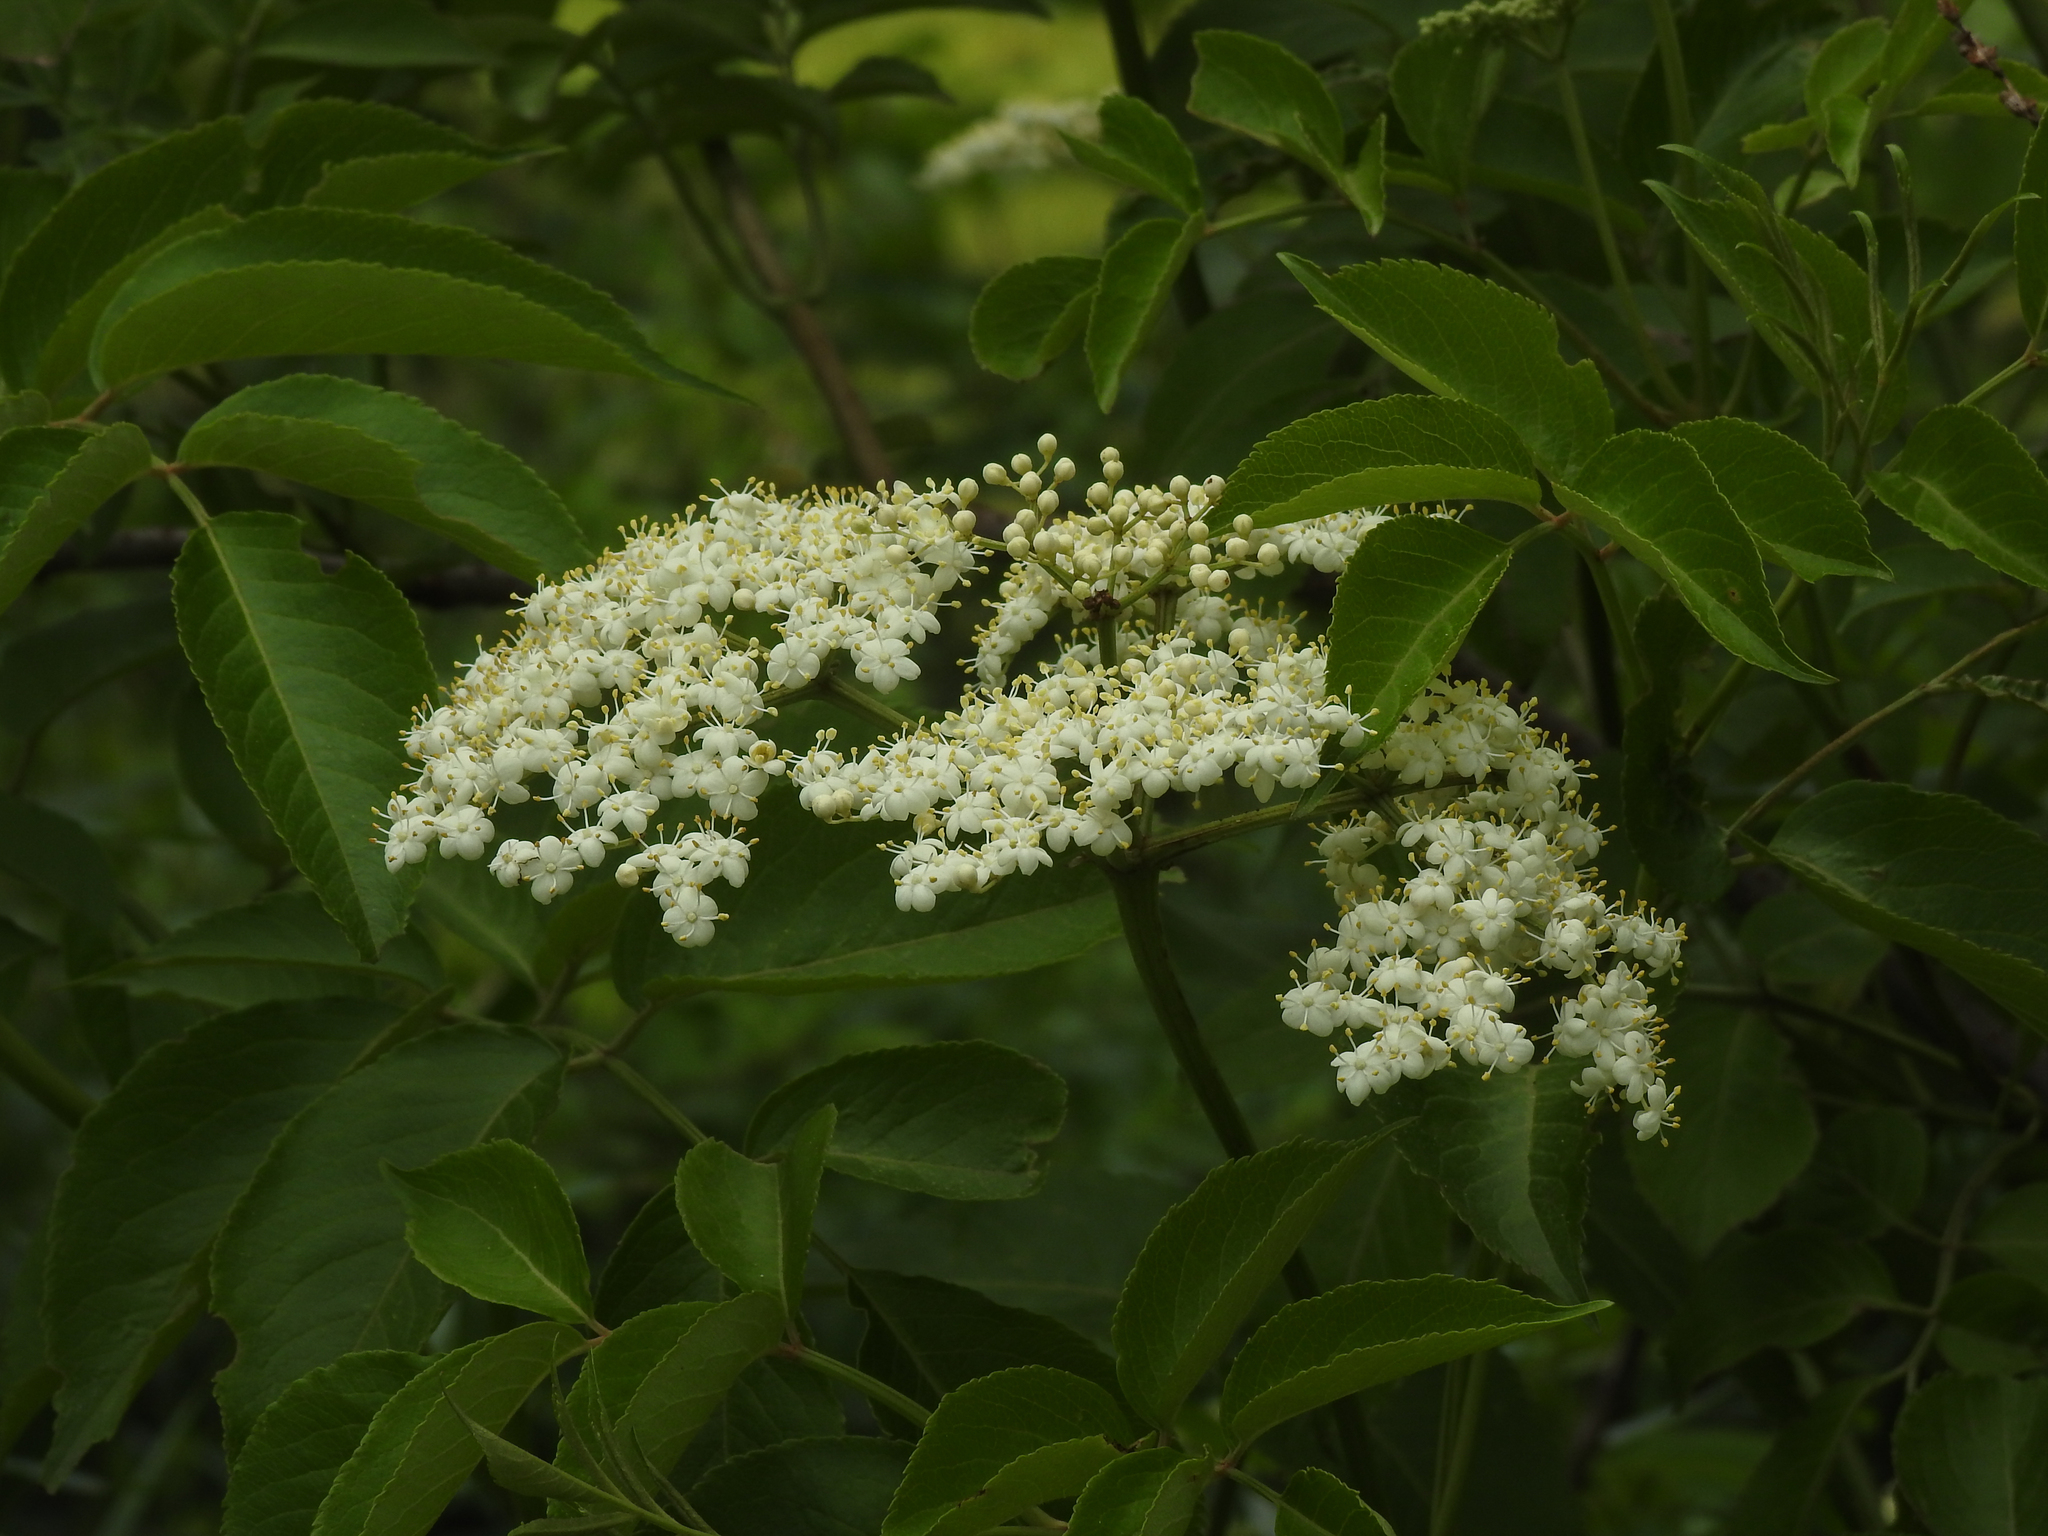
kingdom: Plantae
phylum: Tracheophyta
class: Magnoliopsida
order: Dipsacales
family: Viburnaceae
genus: Sambucus
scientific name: Sambucus canadensis
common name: American elder
